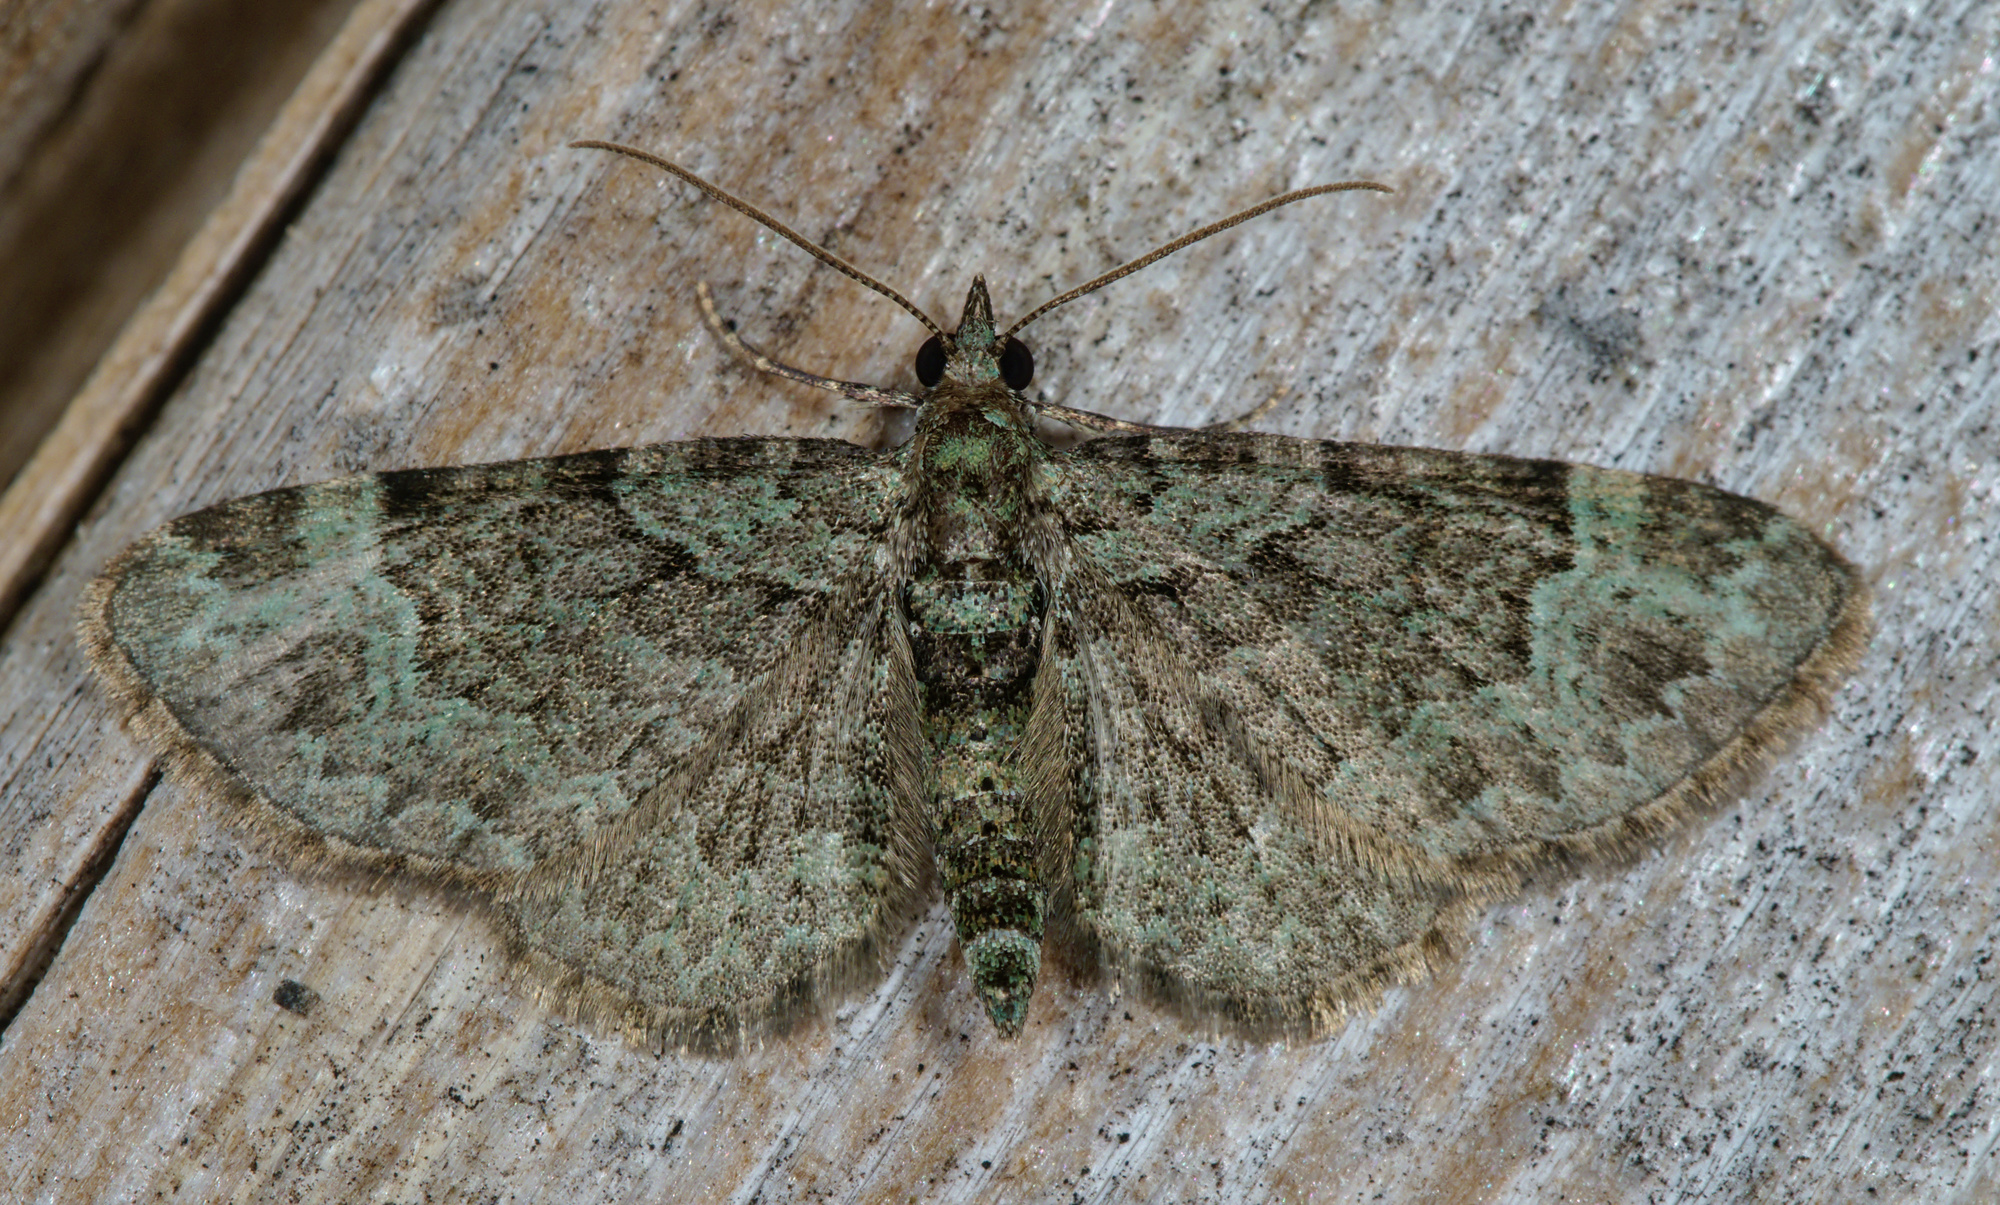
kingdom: Animalia
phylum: Arthropoda
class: Insecta
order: Lepidoptera
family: Geometridae
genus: Pasiphila
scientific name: Pasiphila rectangulata
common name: Green pug
